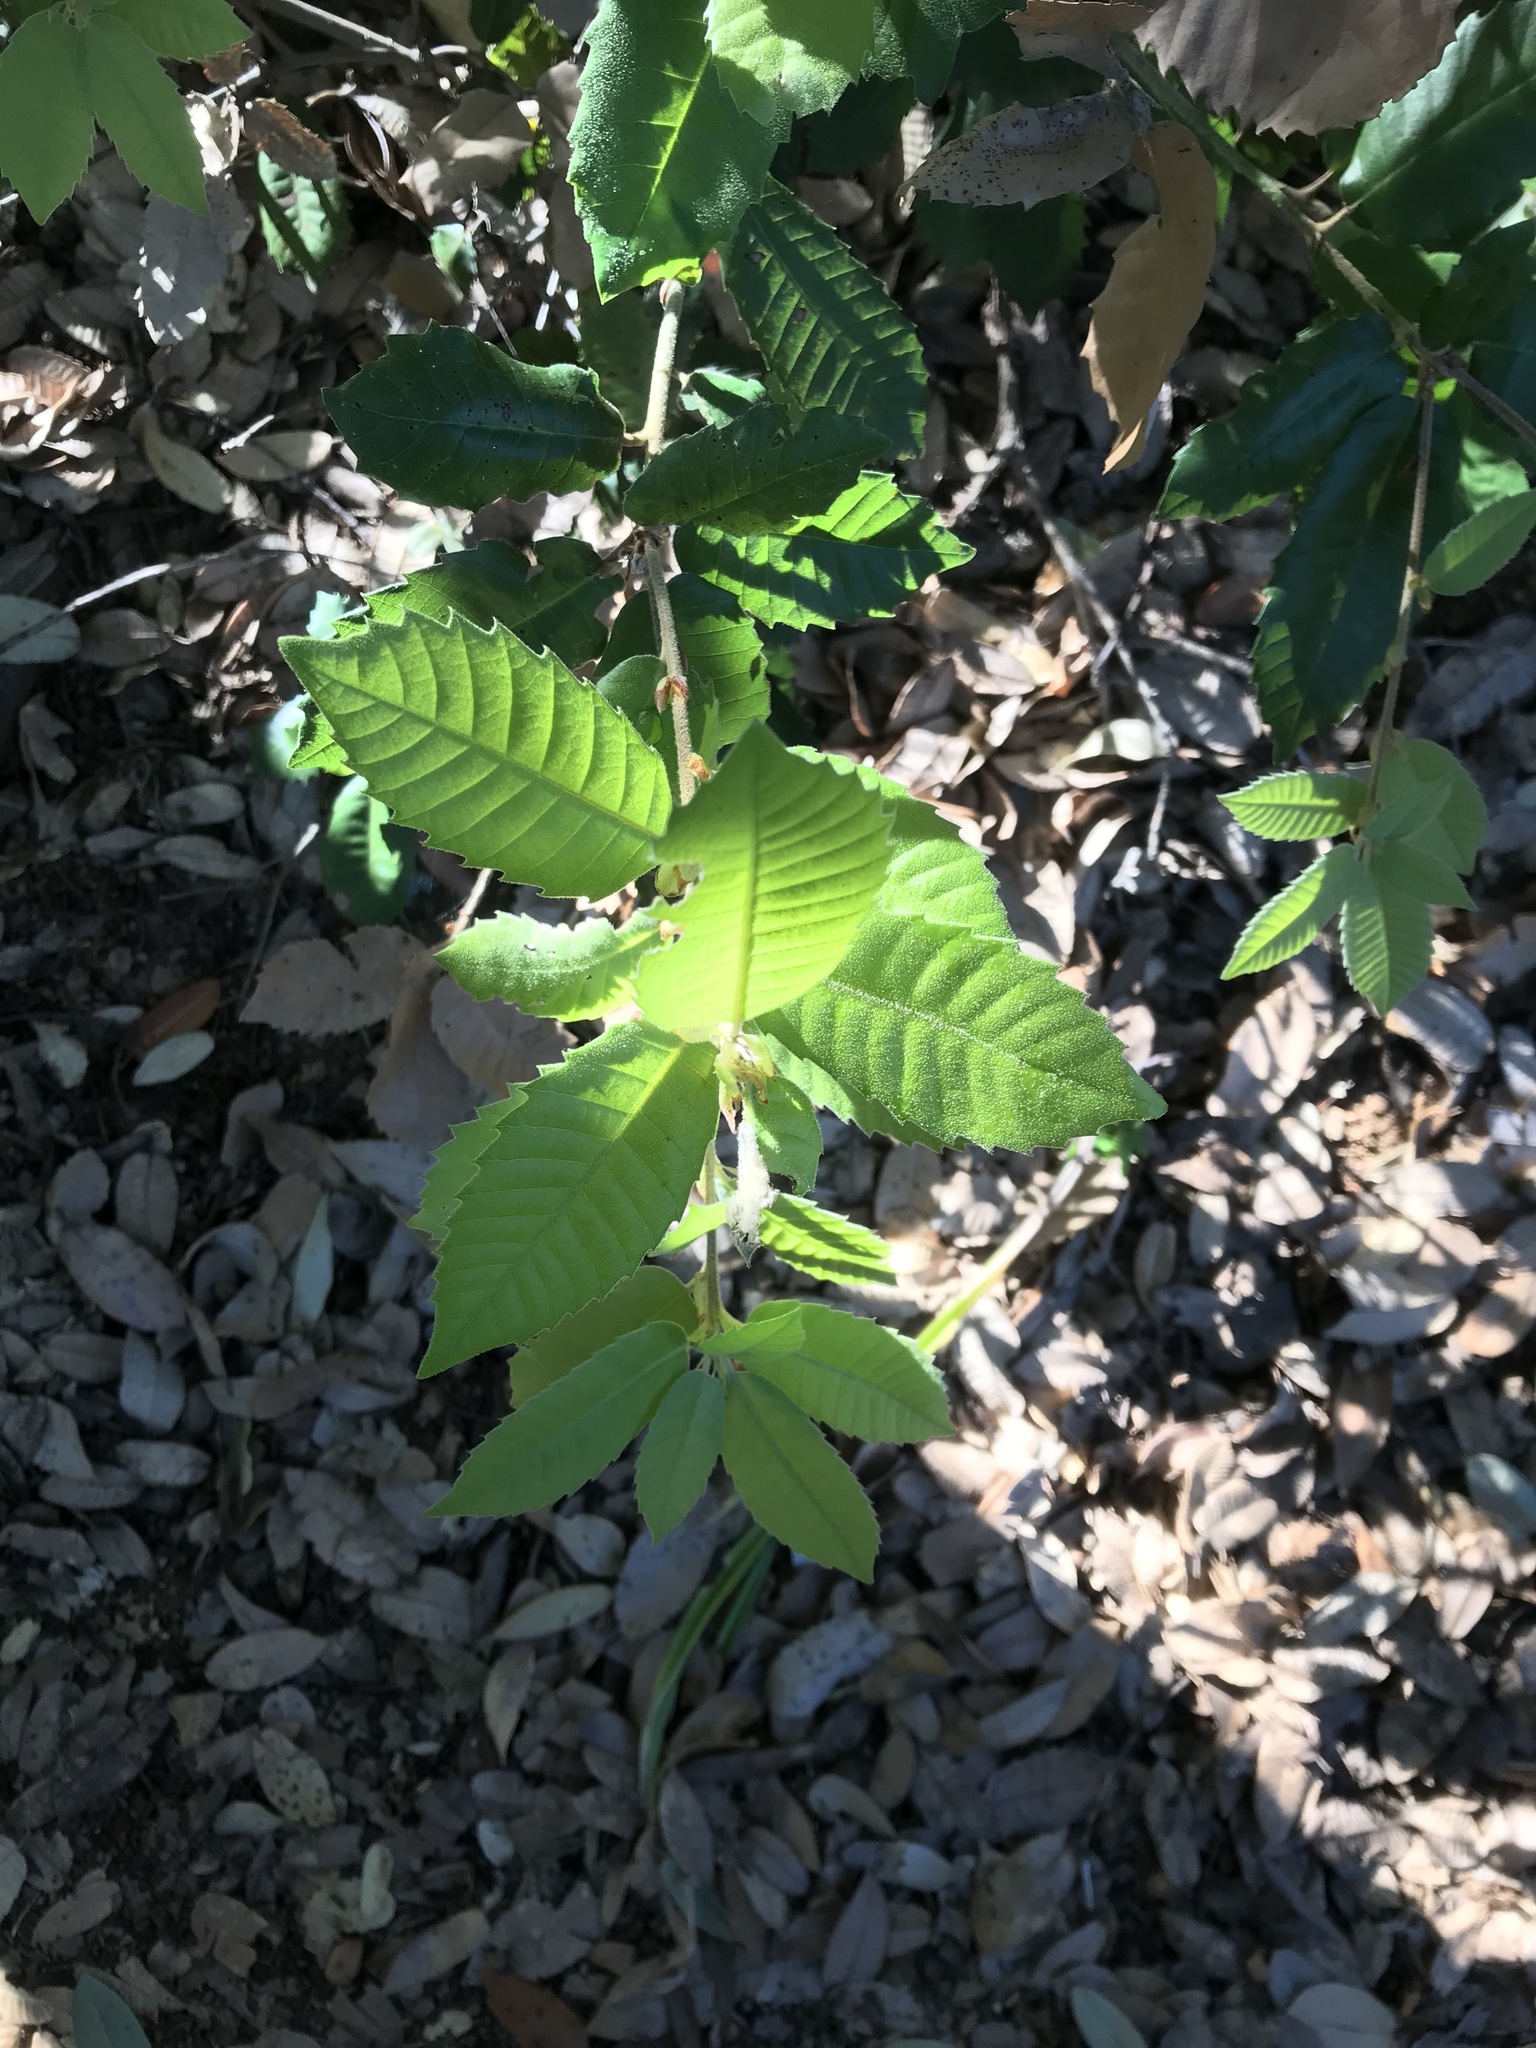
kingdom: Plantae
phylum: Tracheophyta
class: Magnoliopsida
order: Fagales
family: Fagaceae
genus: Notholithocarpus
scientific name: Notholithocarpus densiflorus
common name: Tan bark oak
